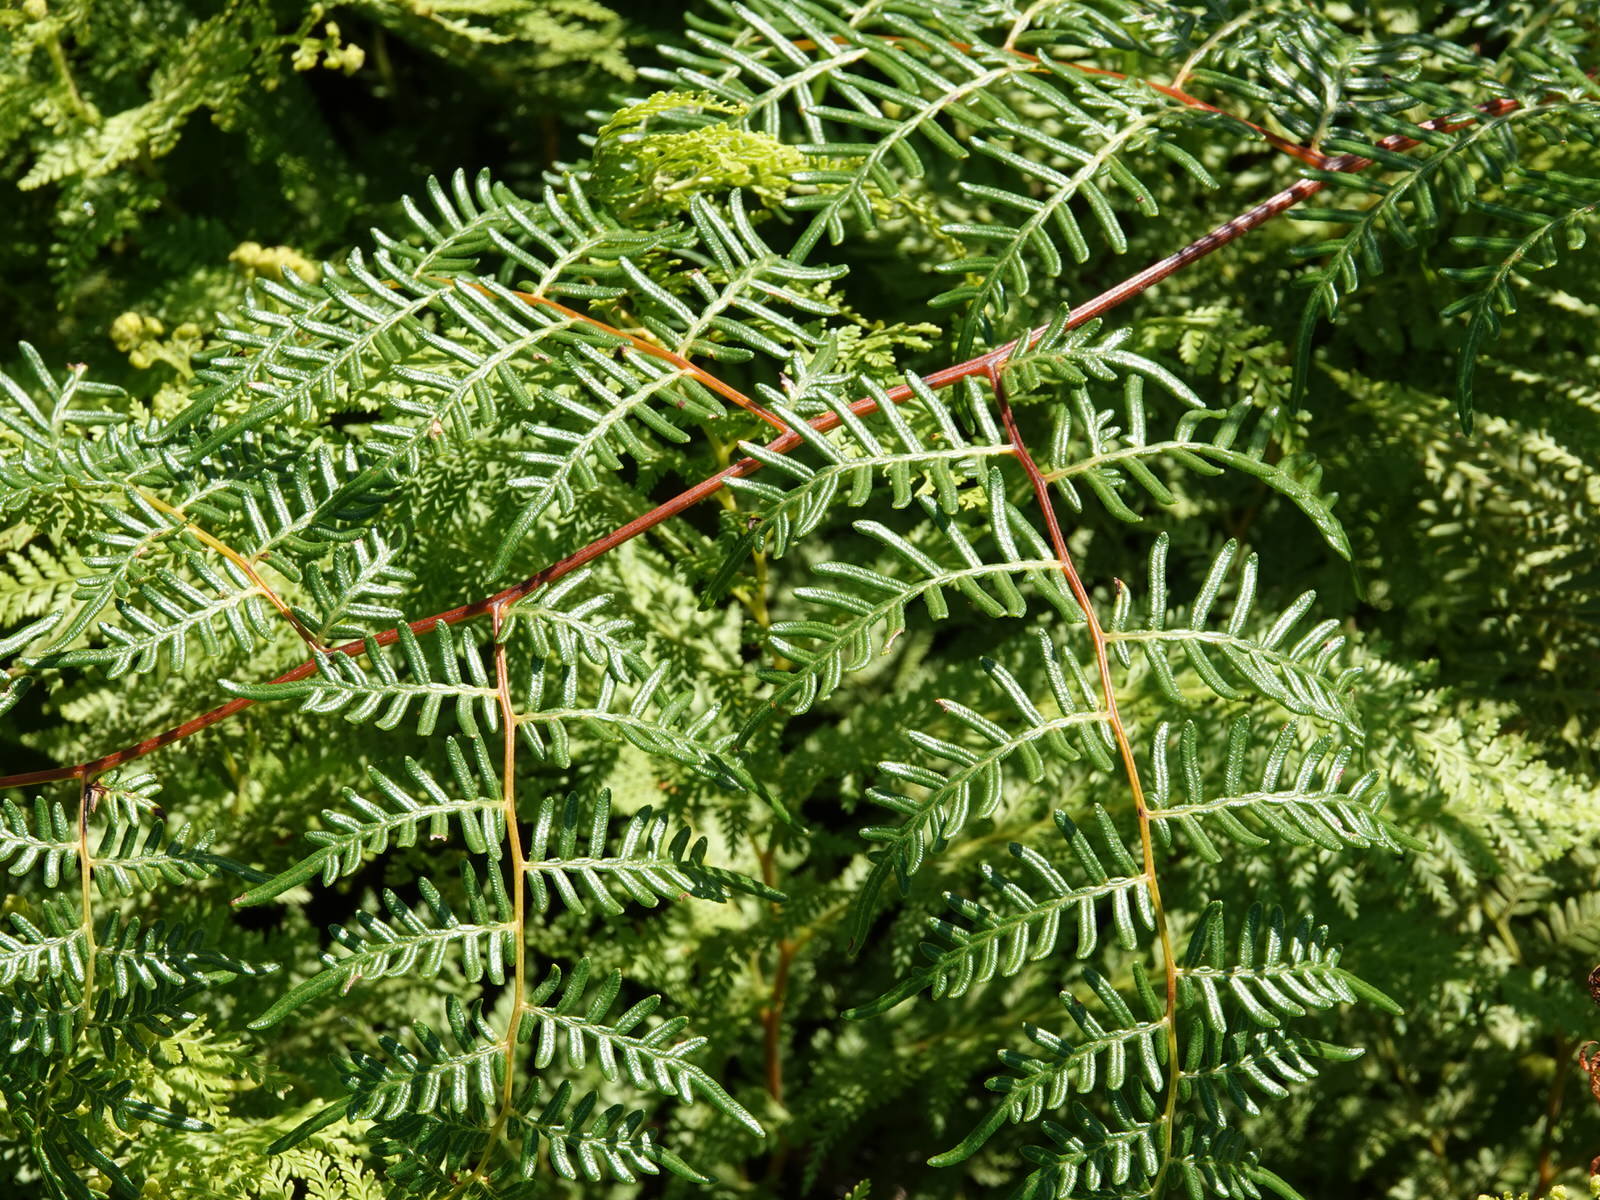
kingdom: Plantae
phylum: Tracheophyta
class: Polypodiopsida
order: Polypodiales
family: Dennstaedtiaceae
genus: Pteridium
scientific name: Pteridium esculentum
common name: Bracken fern
